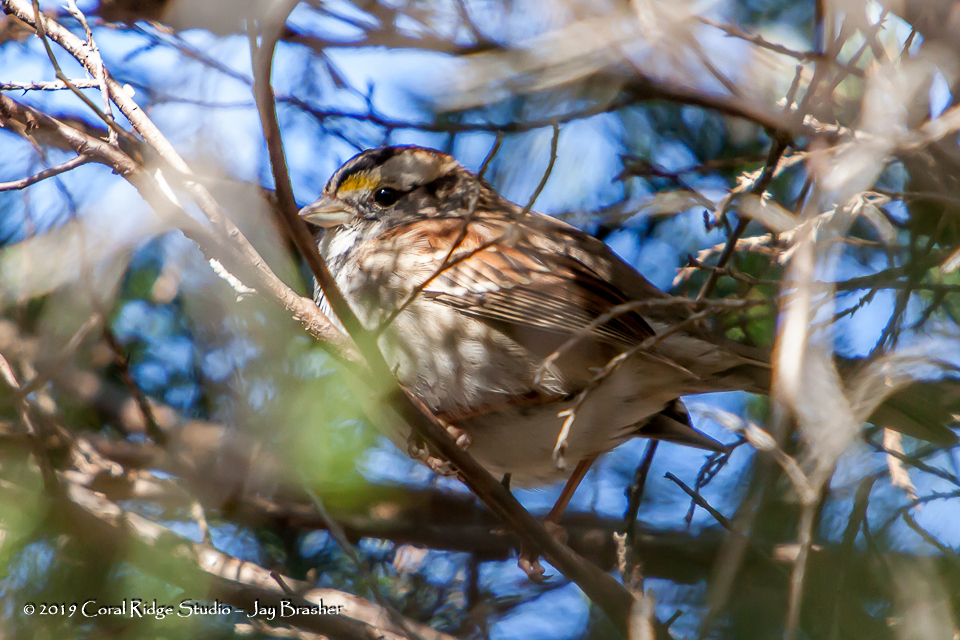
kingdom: Animalia
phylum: Chordata
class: Aves
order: Passeriformes
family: Passerellidae
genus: Zonotrichia
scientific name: Zonotrichia albicollis
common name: White-throated sparrow
